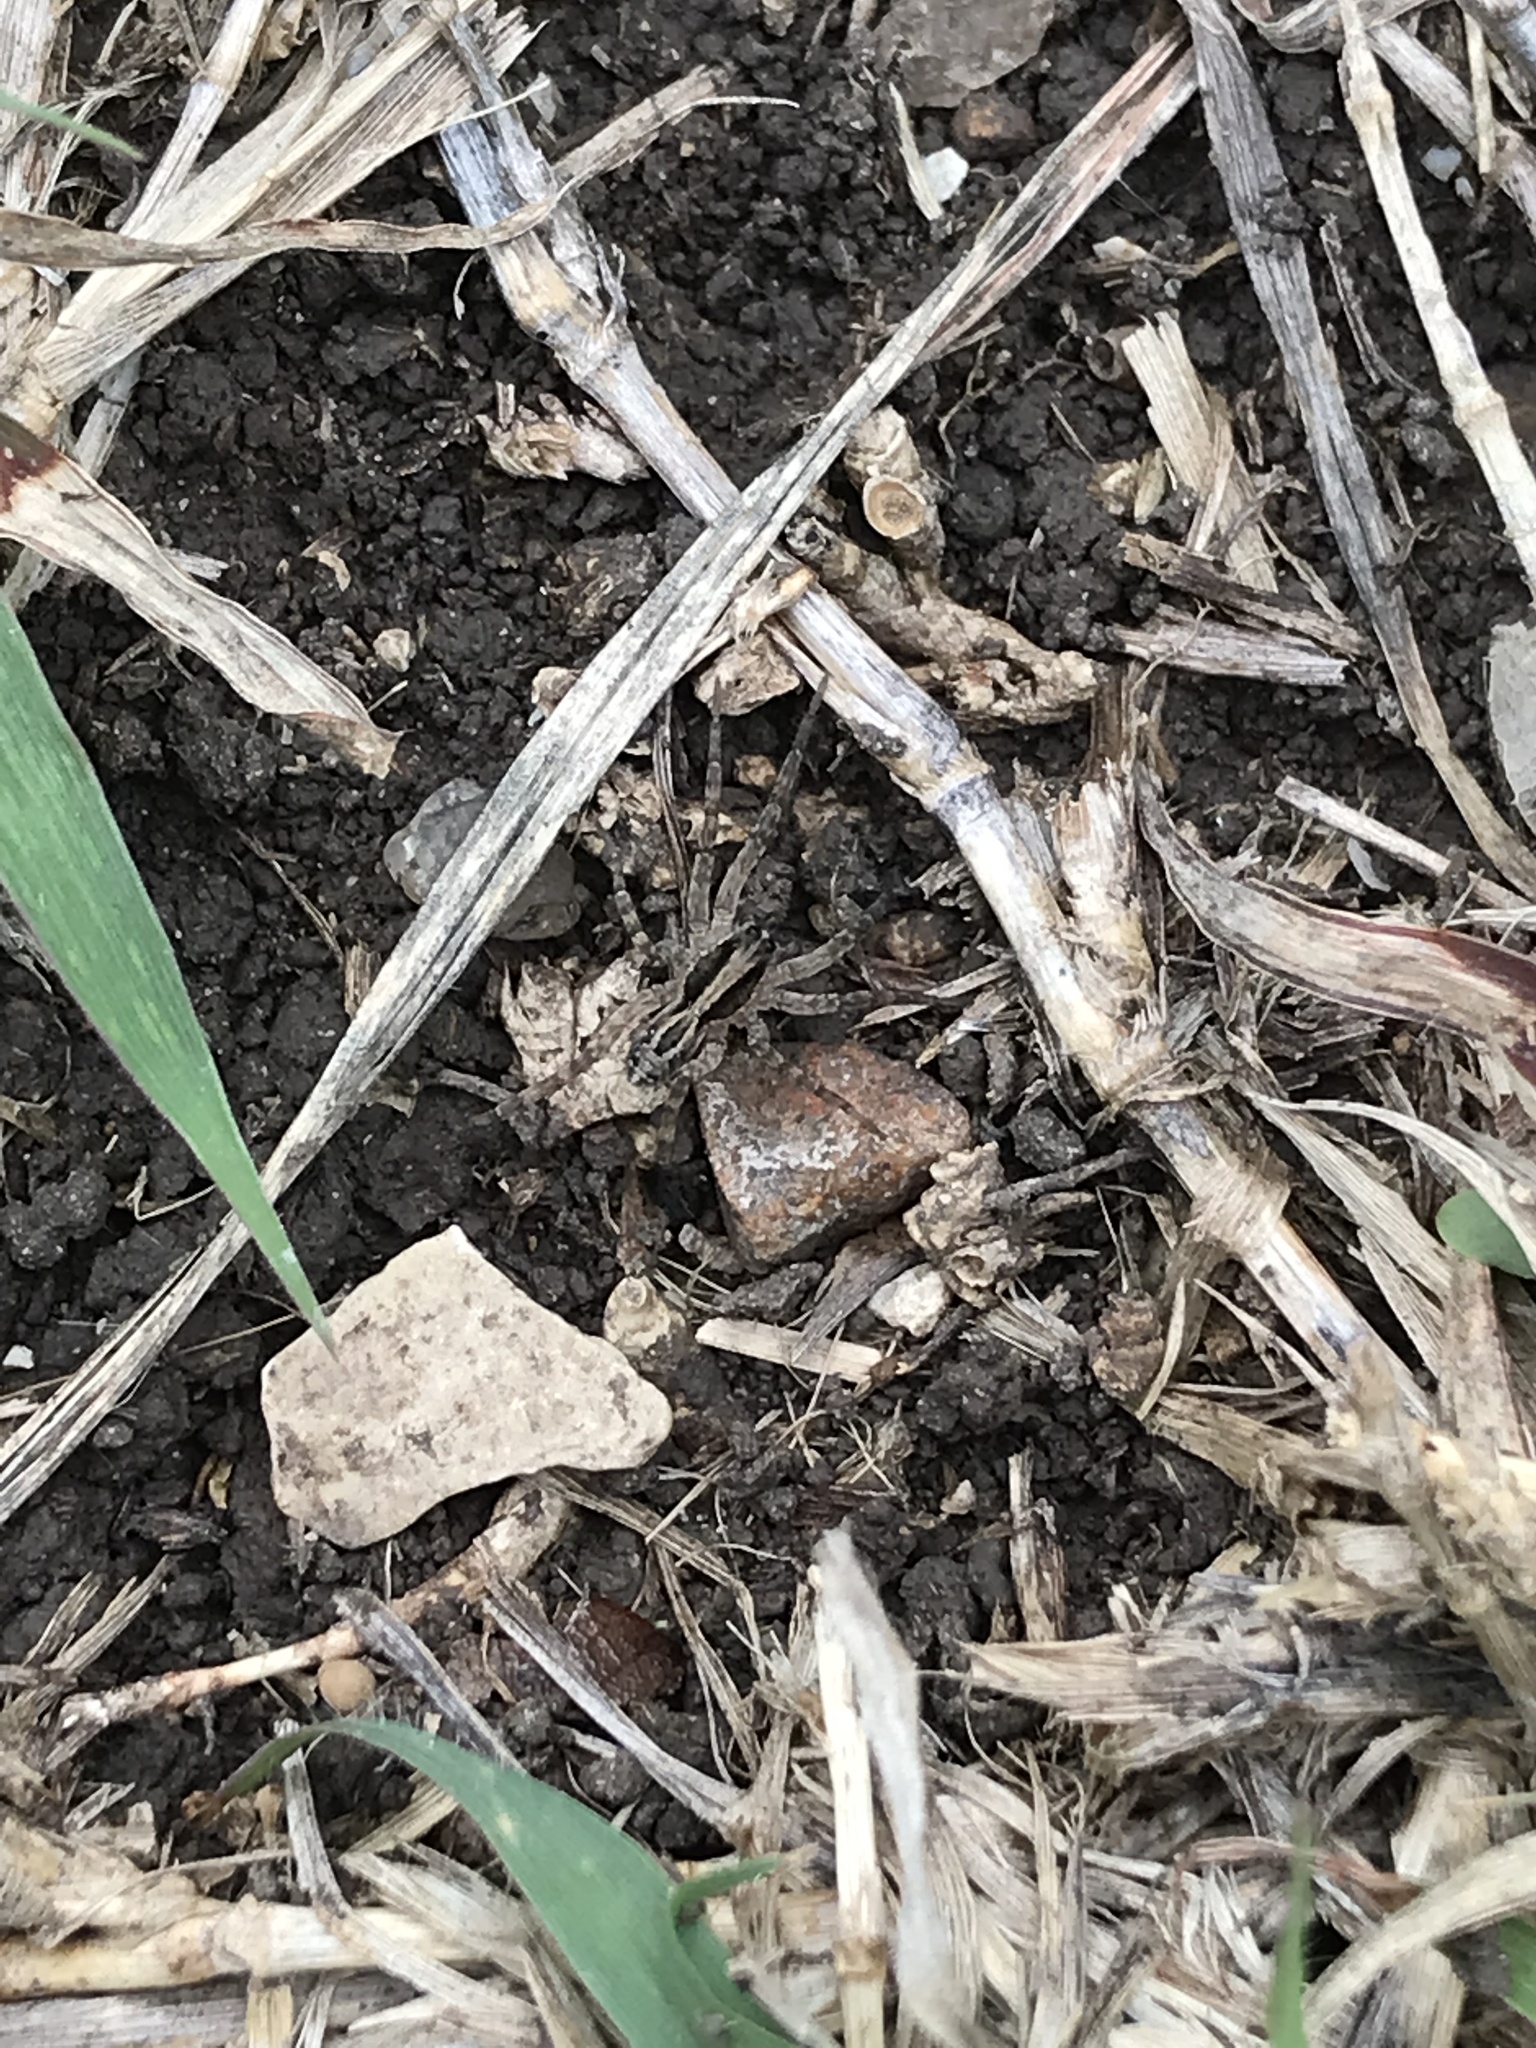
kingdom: Animalia
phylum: Arthropoda
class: Arachnida
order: Araneae
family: Lycosidae
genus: Schizocosa
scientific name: Schizocosa avida
